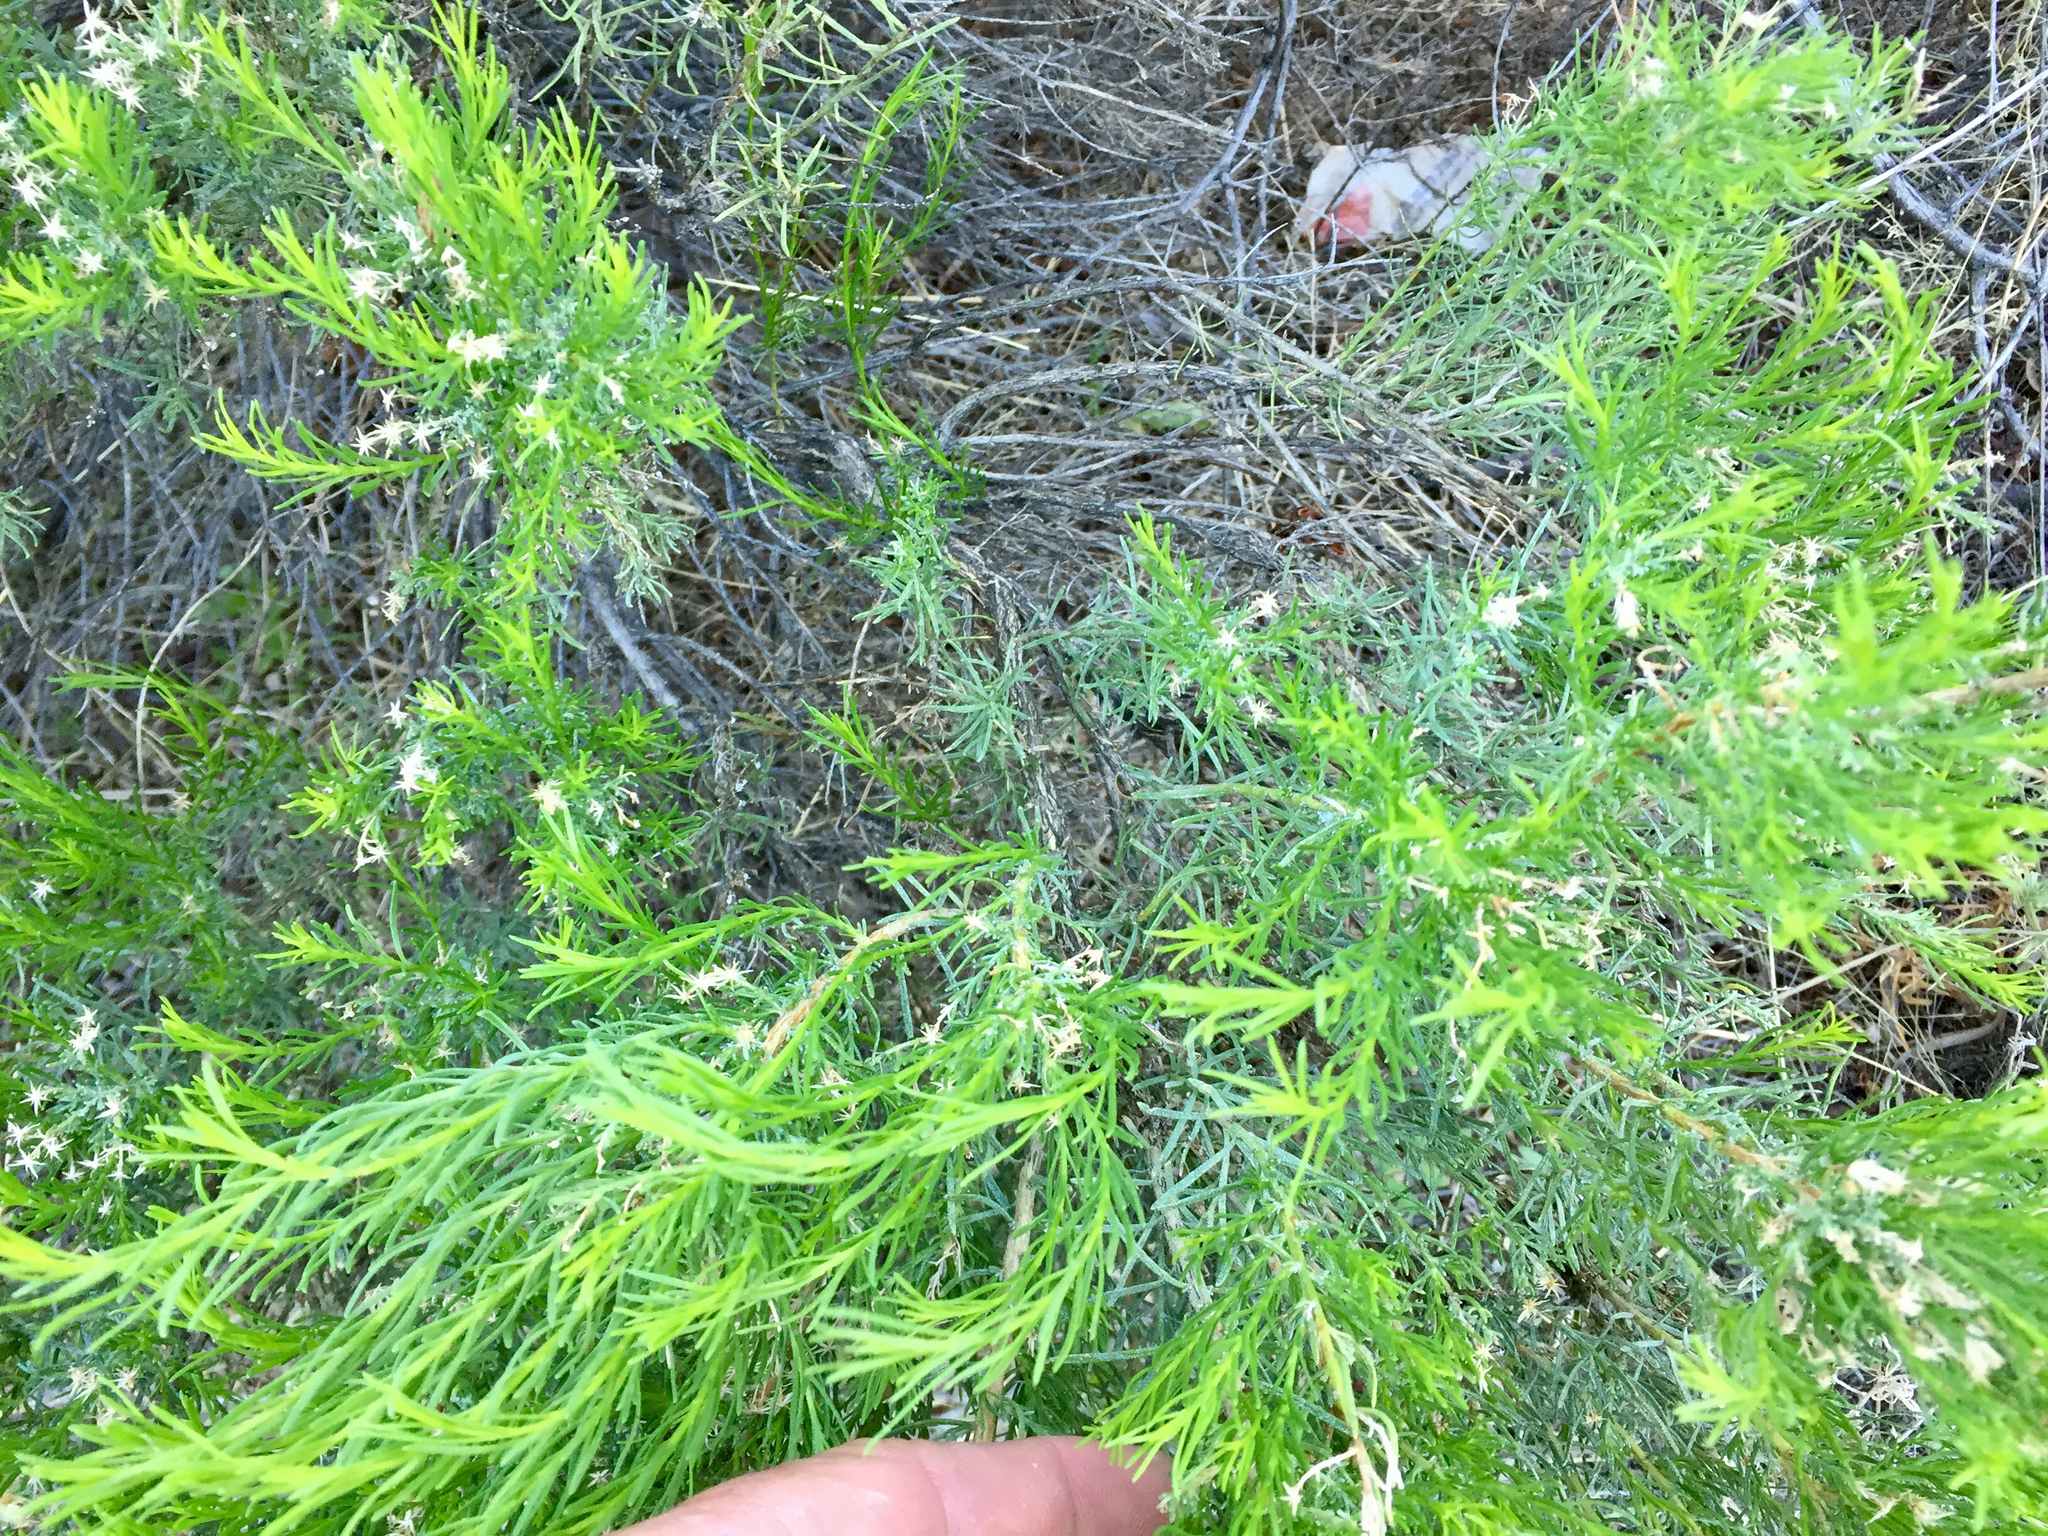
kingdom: Plantae
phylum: Tracheophyta
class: Magnoliopsida
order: Asterales
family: Asteraceae
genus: Ericameria
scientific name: Ericameria laricifolia
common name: Turpentine-bush
